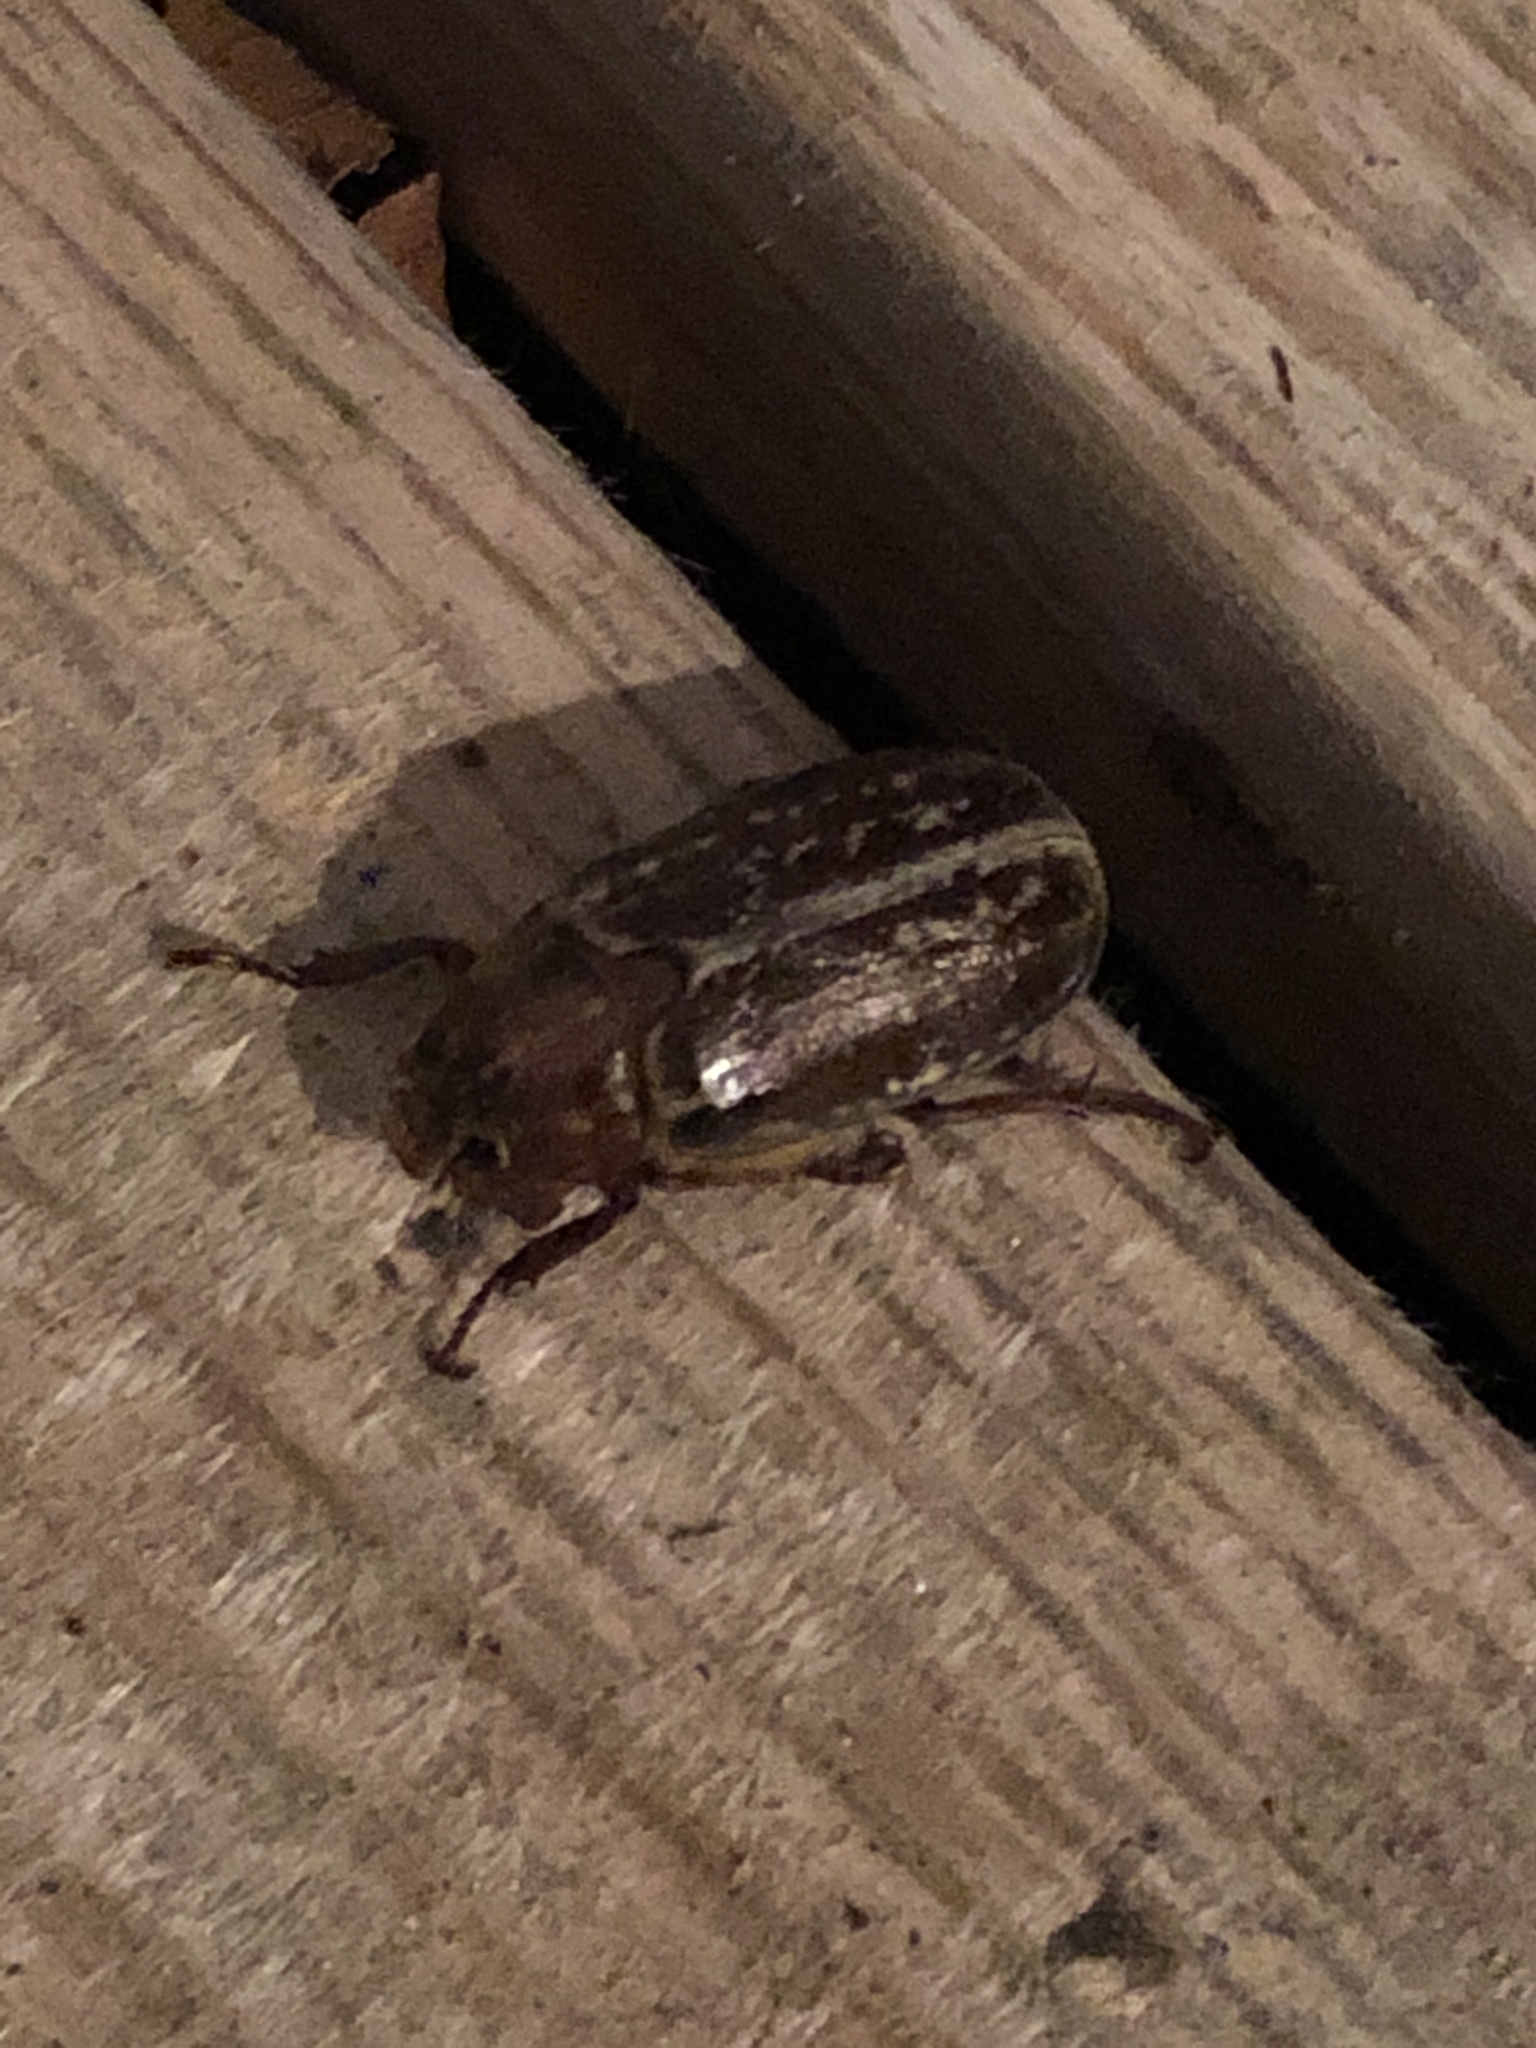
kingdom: Animalia
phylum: Arthropoda
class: Insecta
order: Coleoptera
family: Scarabaeidae
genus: Polyphylla
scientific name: Polyphylla variolosa
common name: Variegated june beetle
